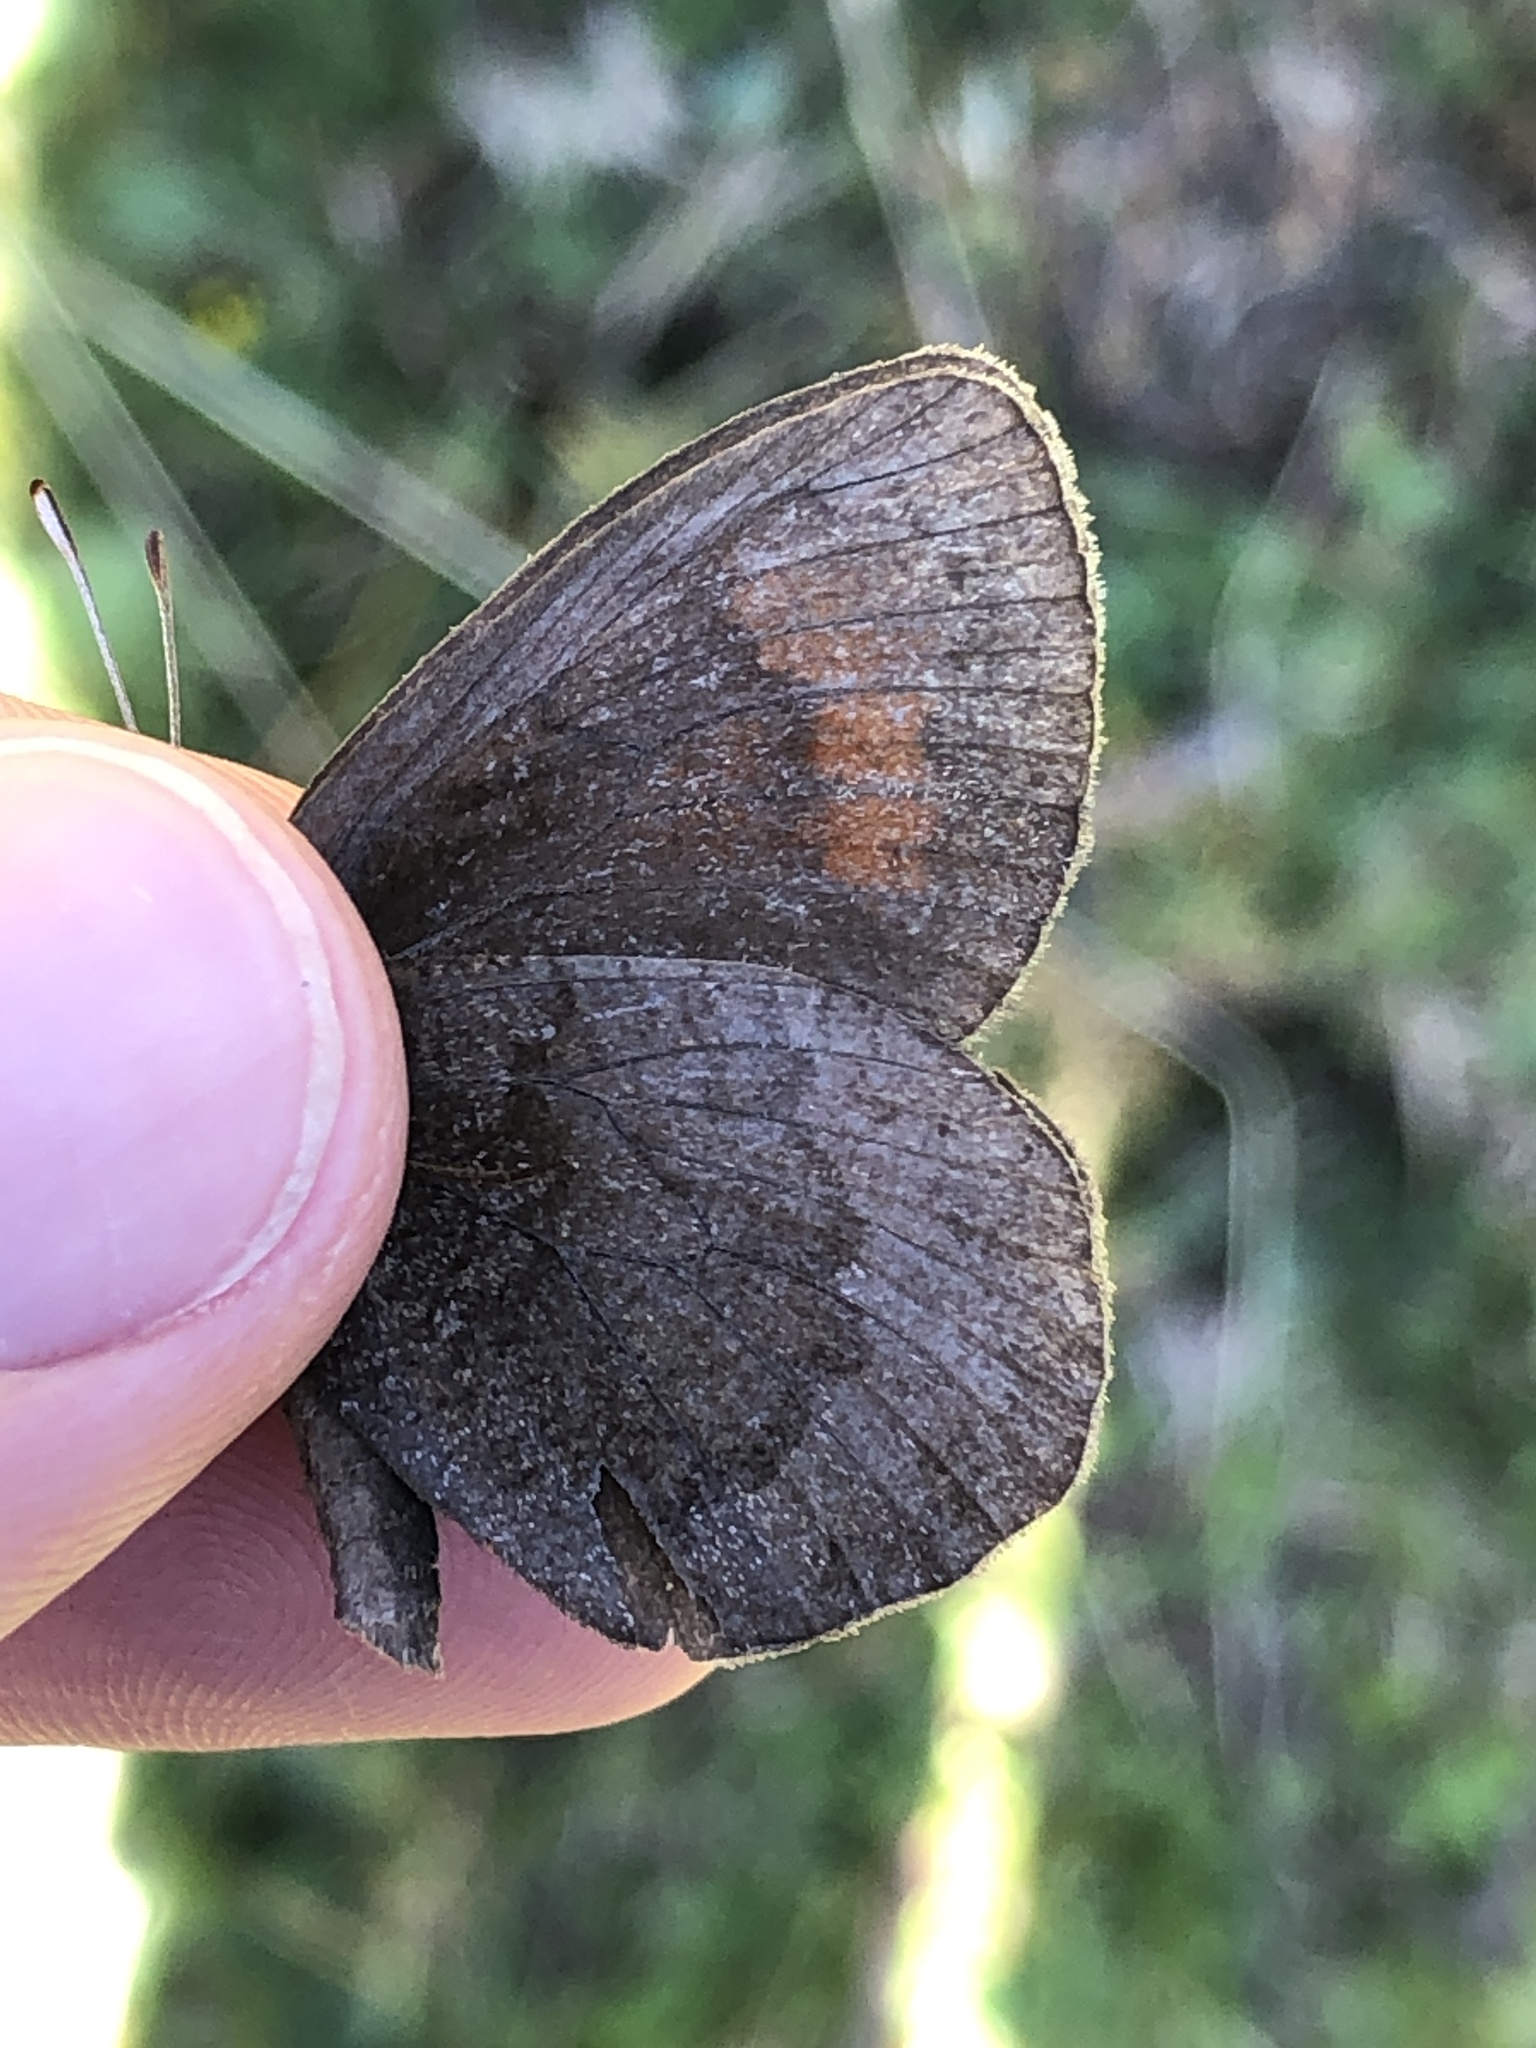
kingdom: Animalia
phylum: Arthropoda
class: Insecta
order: Lepidoptera
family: Nymphalidae
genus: Erebia
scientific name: Erebia pronoe
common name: Water ringlet
